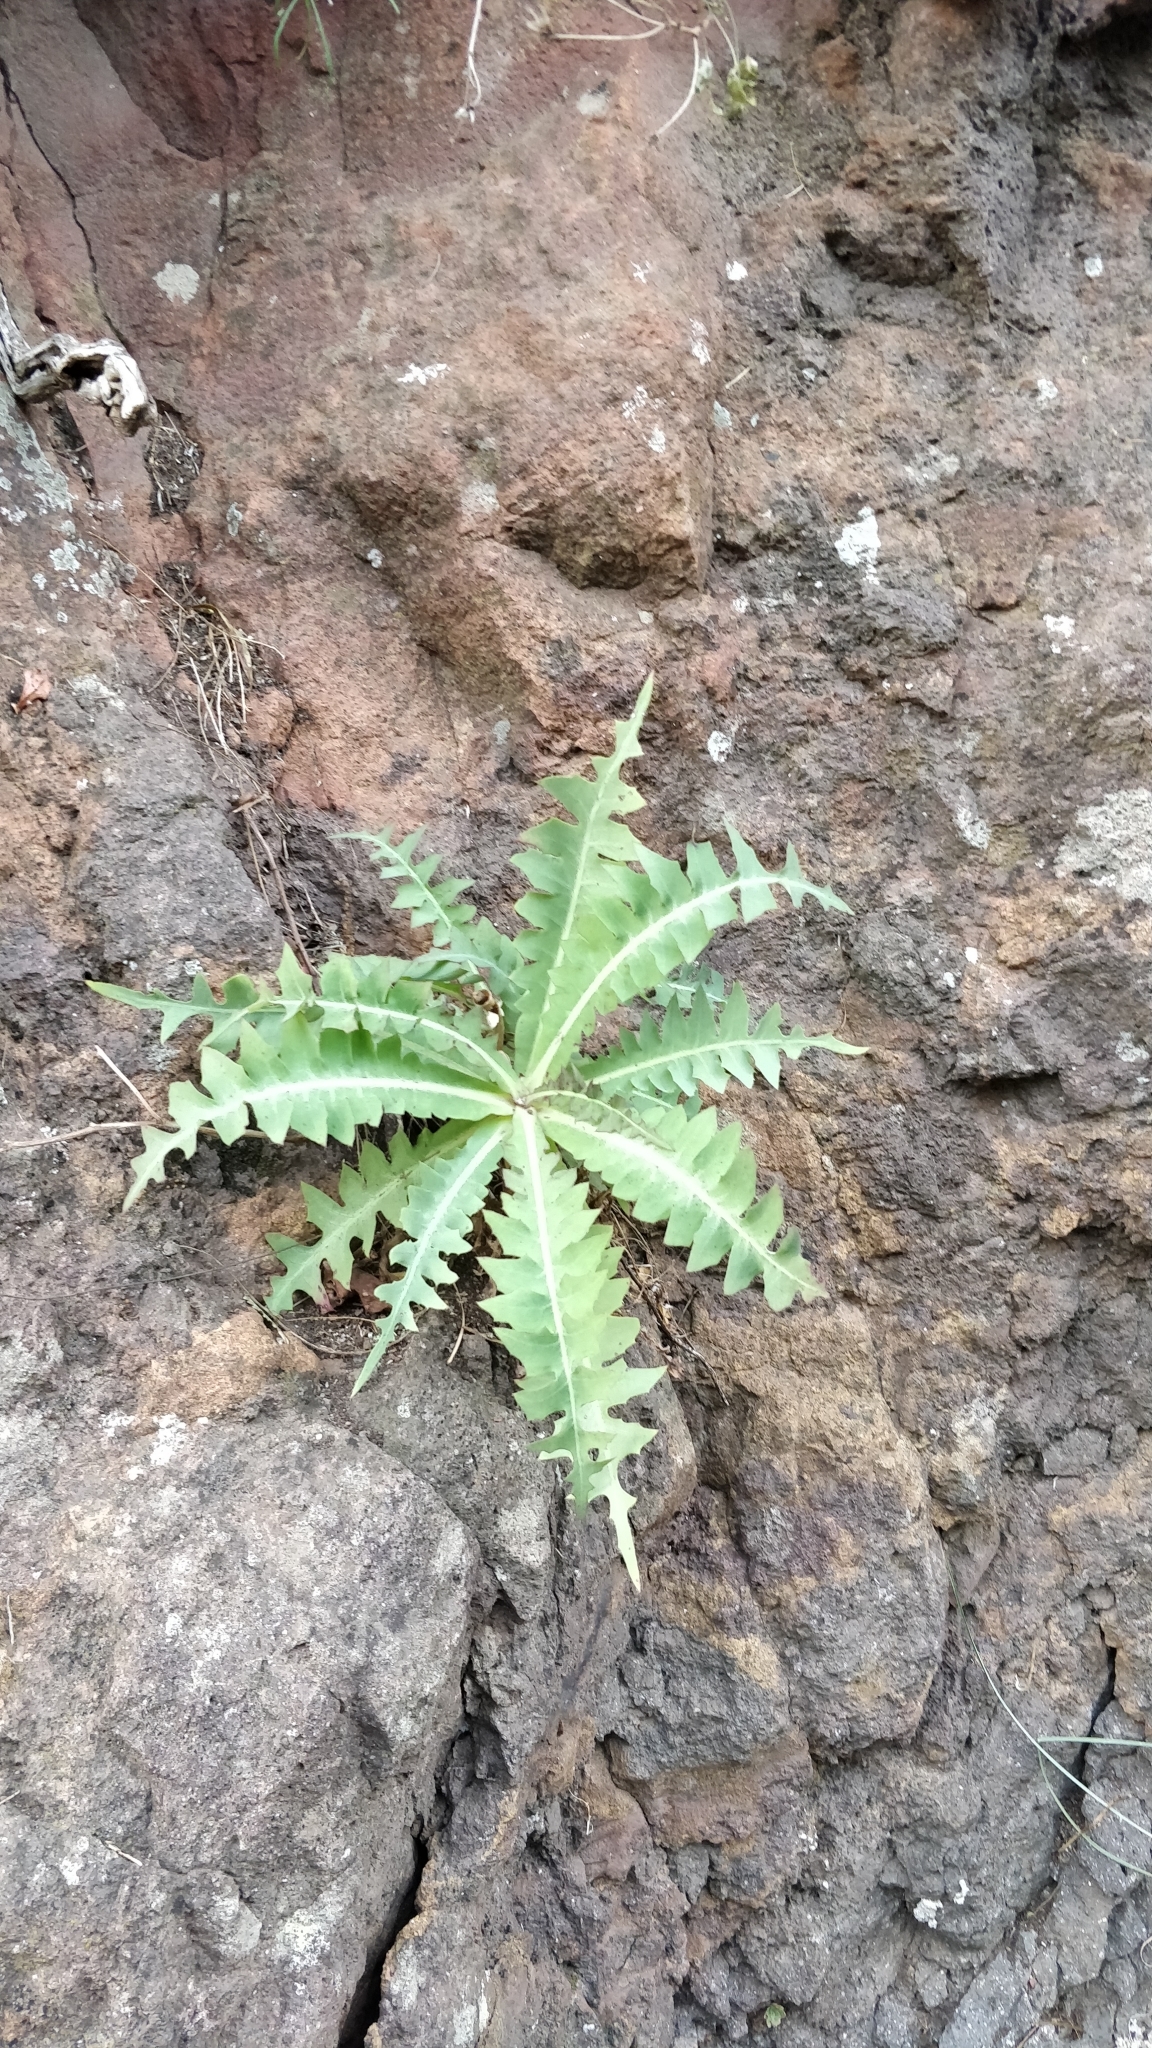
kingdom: Plantae
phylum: Tracheophyta
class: Magnoliopsida
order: Asterales
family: Asteraceae
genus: Sonchus
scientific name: Sonchus ustulatus
